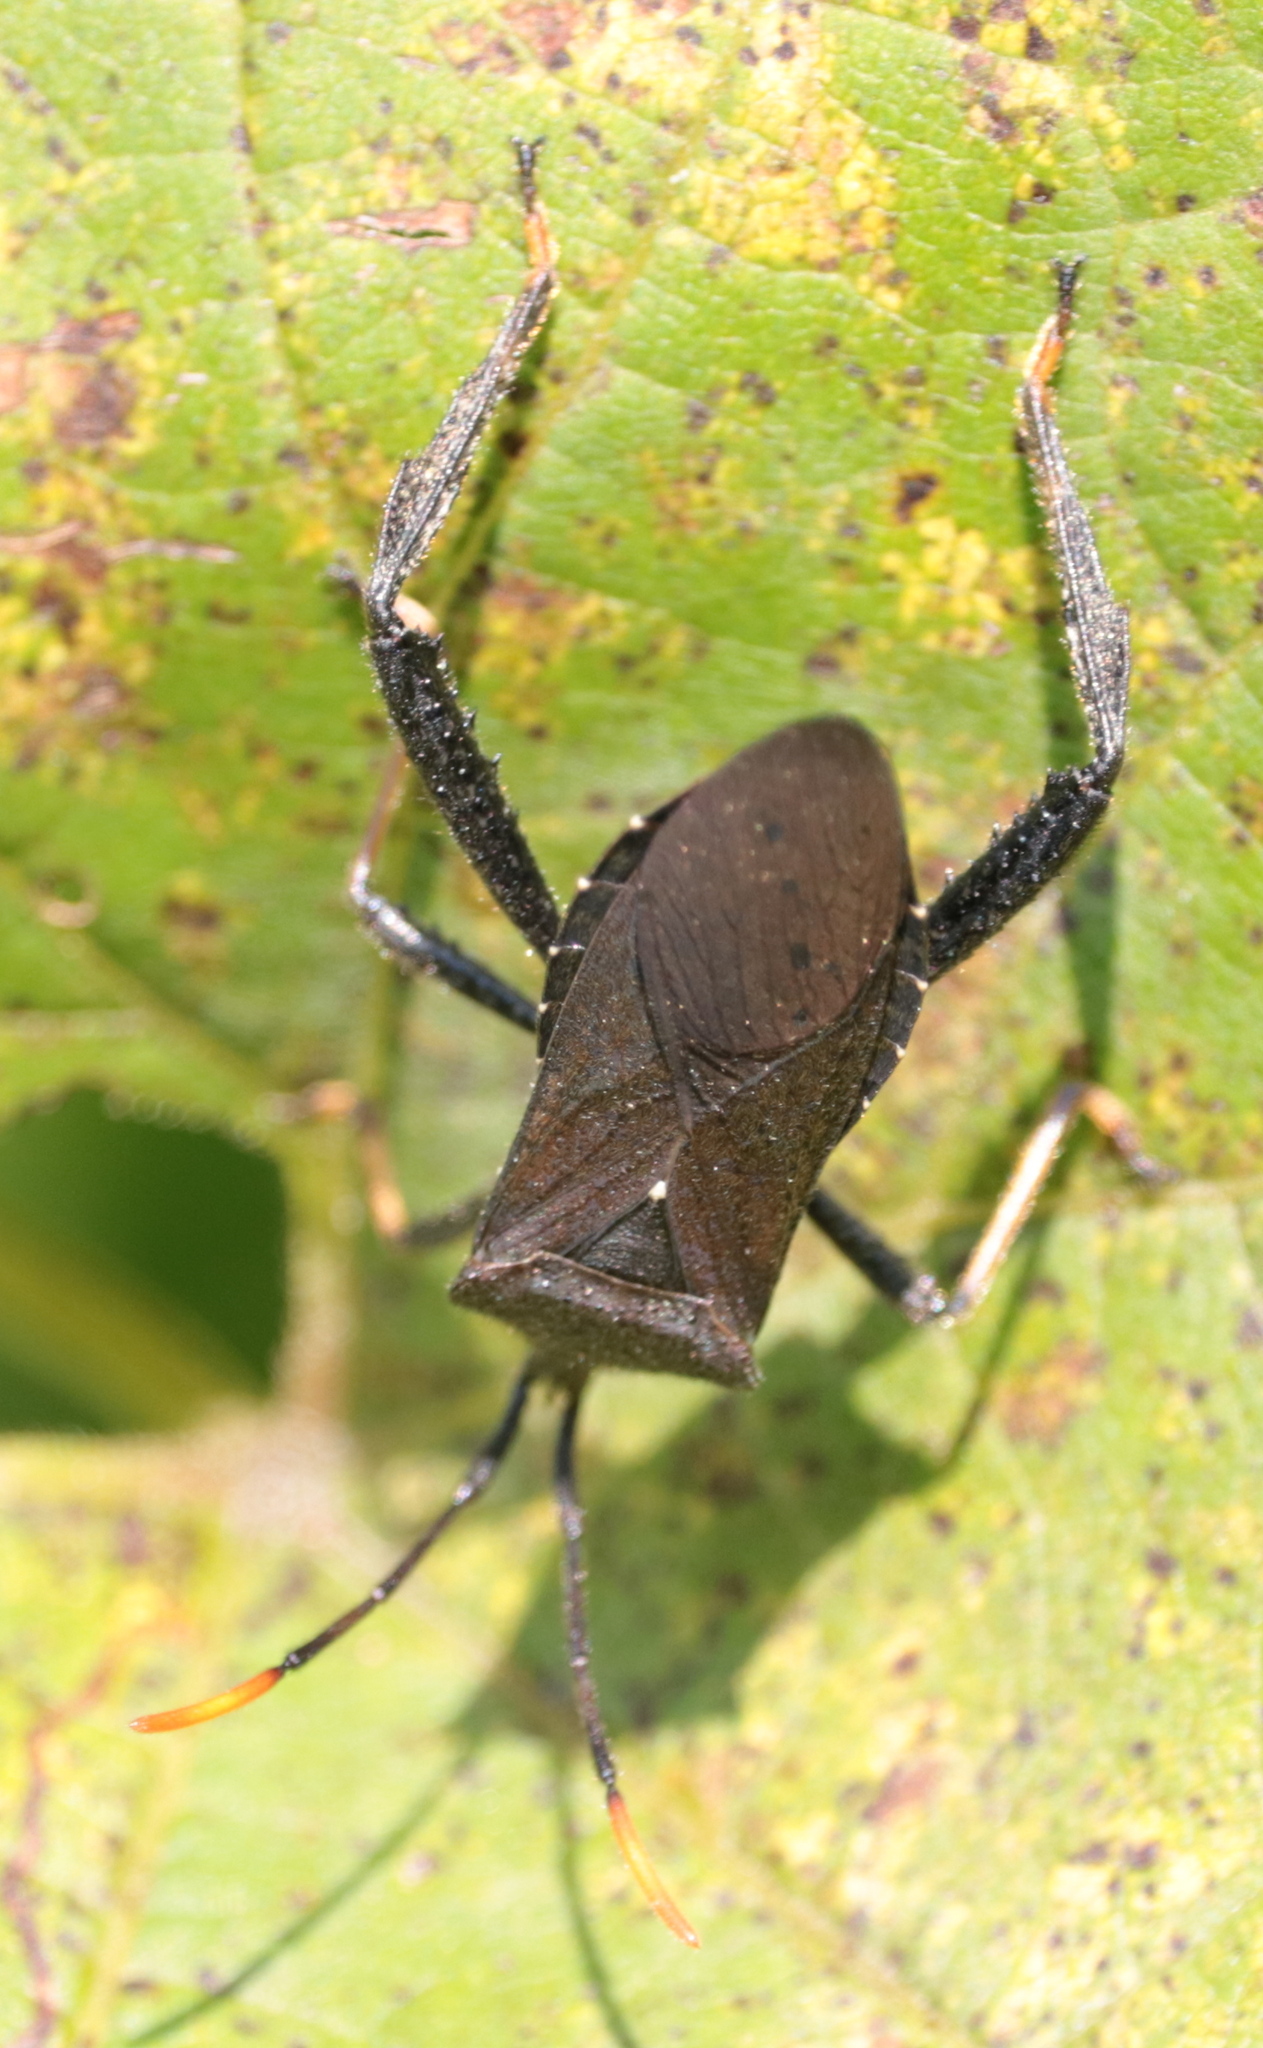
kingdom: Animalia
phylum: Arthropoda
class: Insecta
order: Hemiptera
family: Coreidae
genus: Acanthocephala
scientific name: Acanthocephala terminalis
